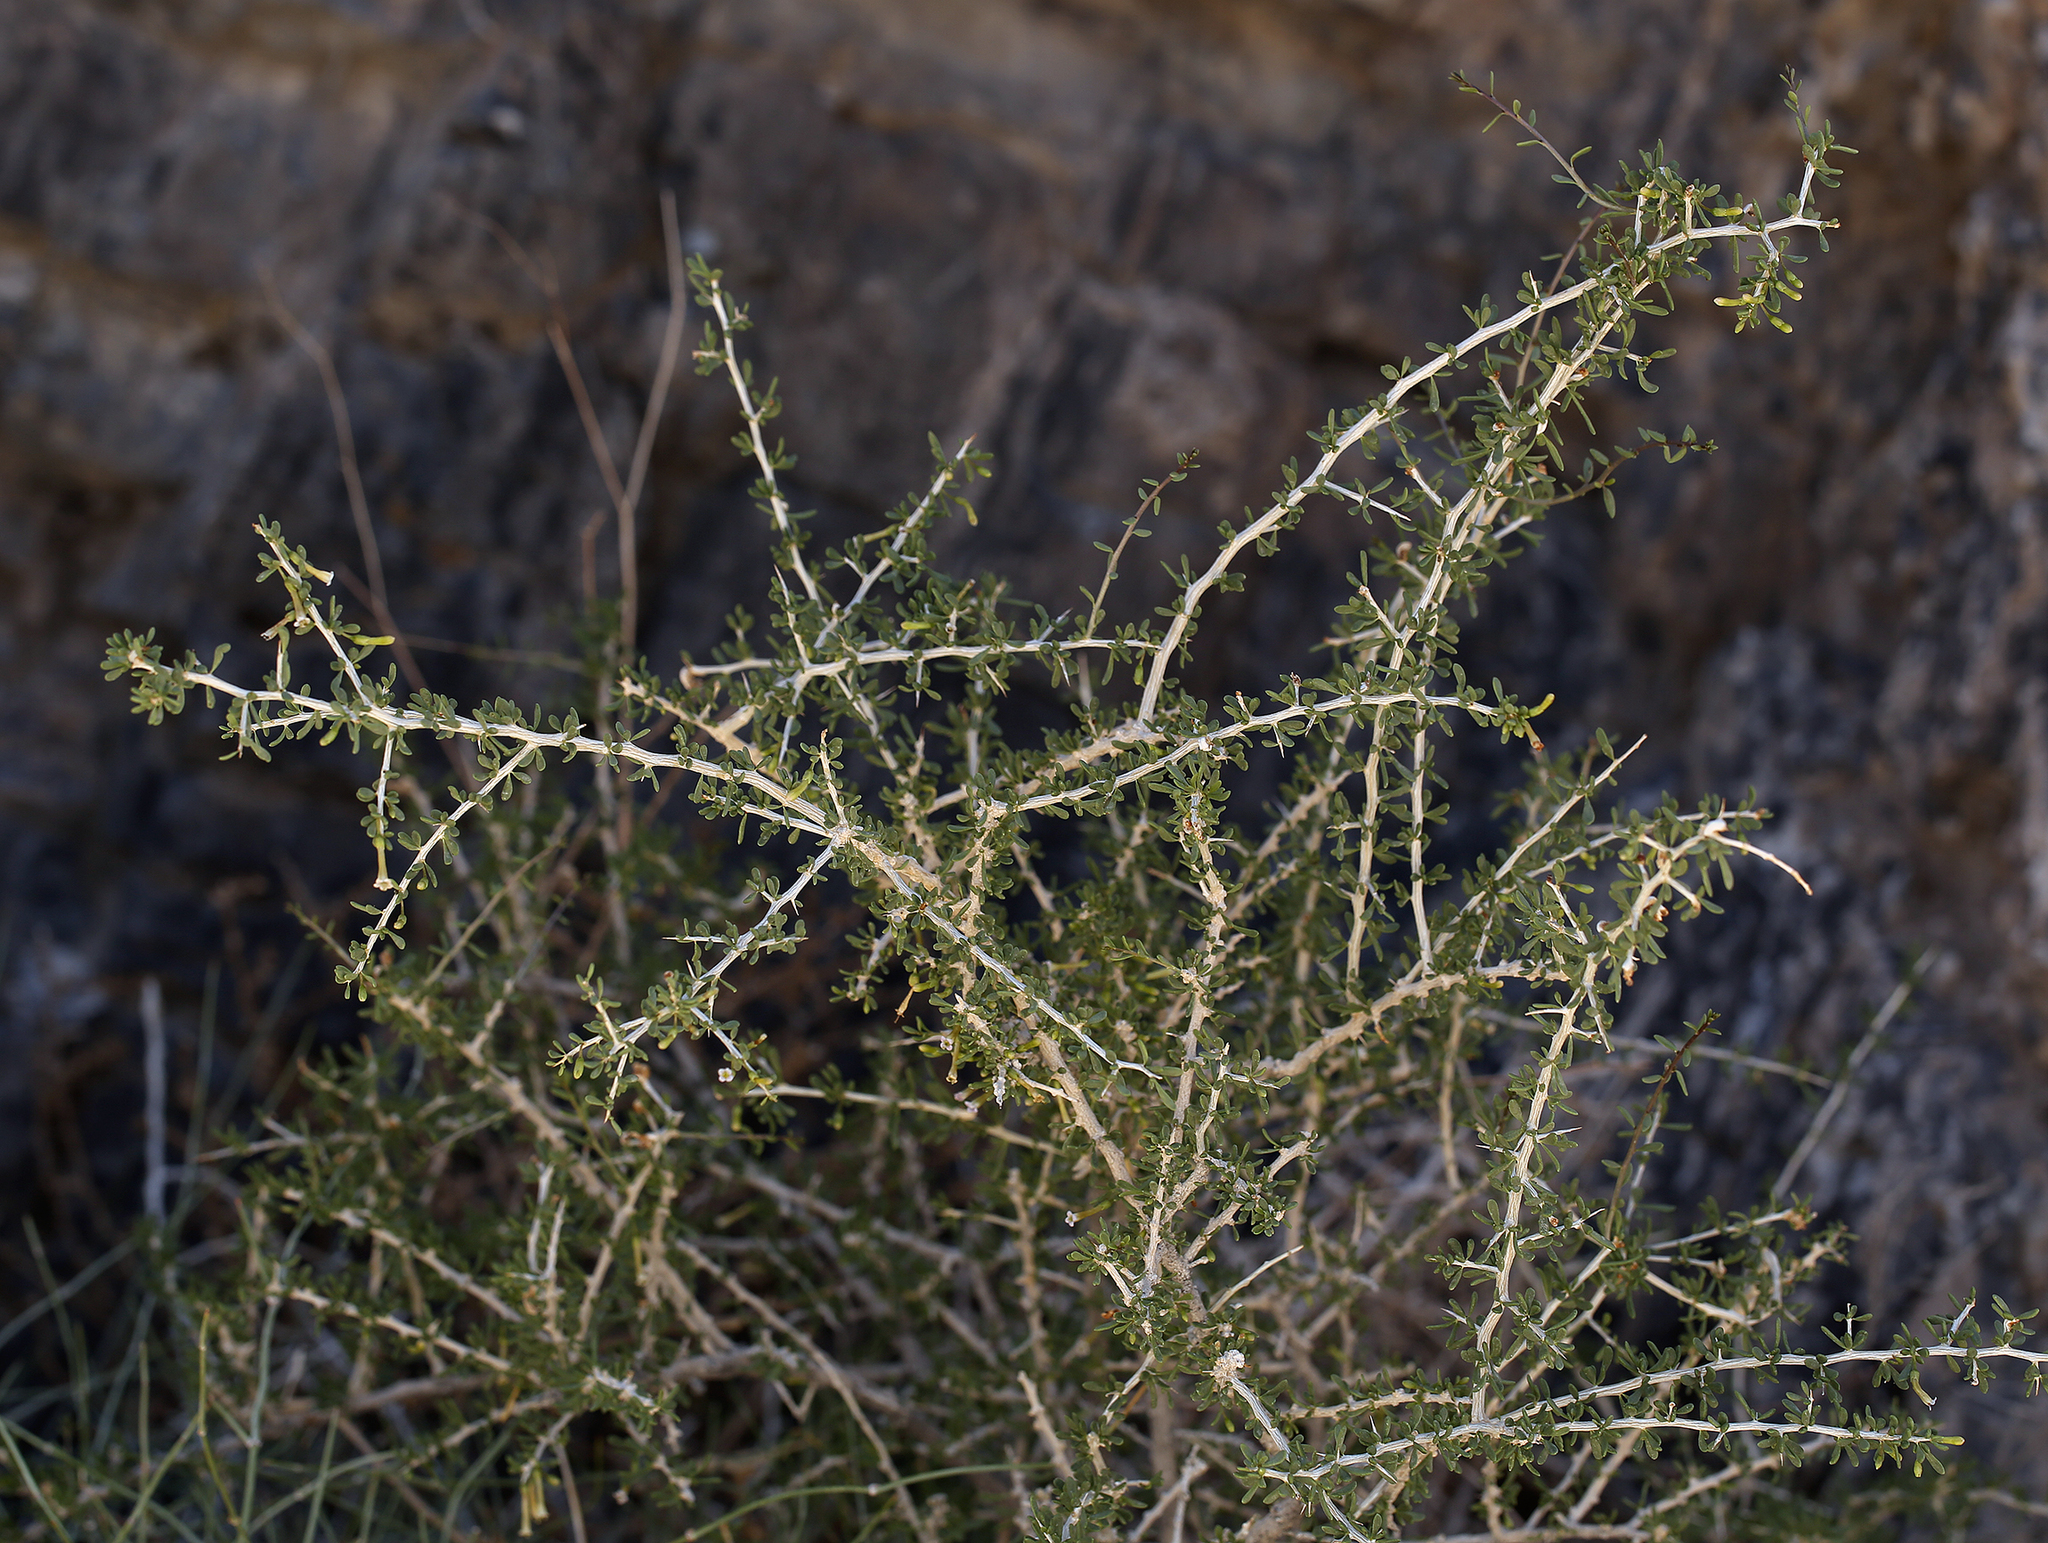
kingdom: Plantae
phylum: Tracheophyta
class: Magnoliopsida
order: Solanales
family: Solanaceae
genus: Lycium
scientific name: Lycium andersonii
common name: Water-jacket
